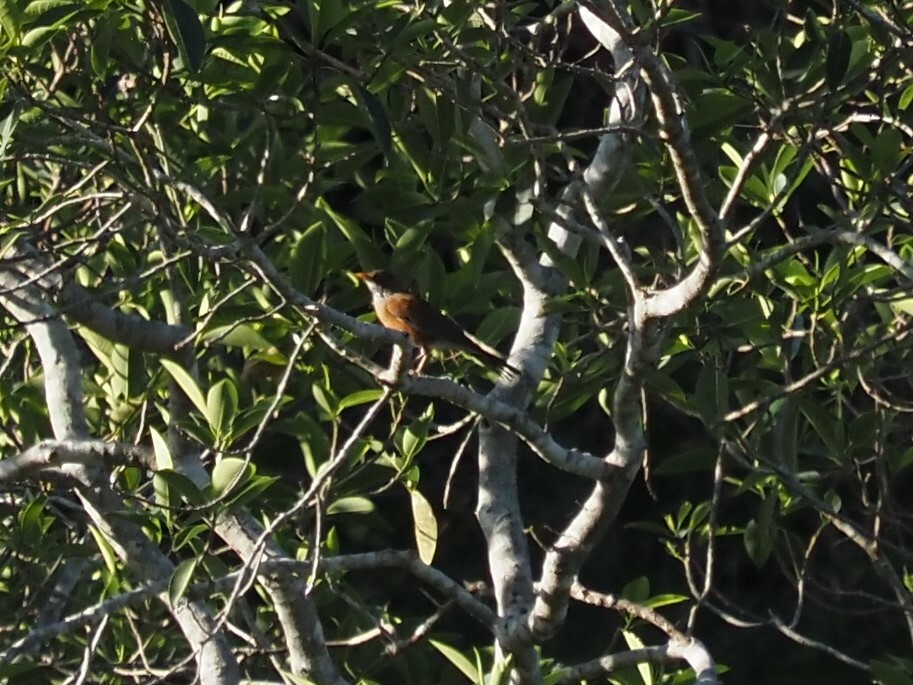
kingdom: Animalia
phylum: Chordata
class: Aves
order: Passeriformes
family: Turdidae
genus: Turdus
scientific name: Turdus rufopalliatus
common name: Rufous-backed robin
